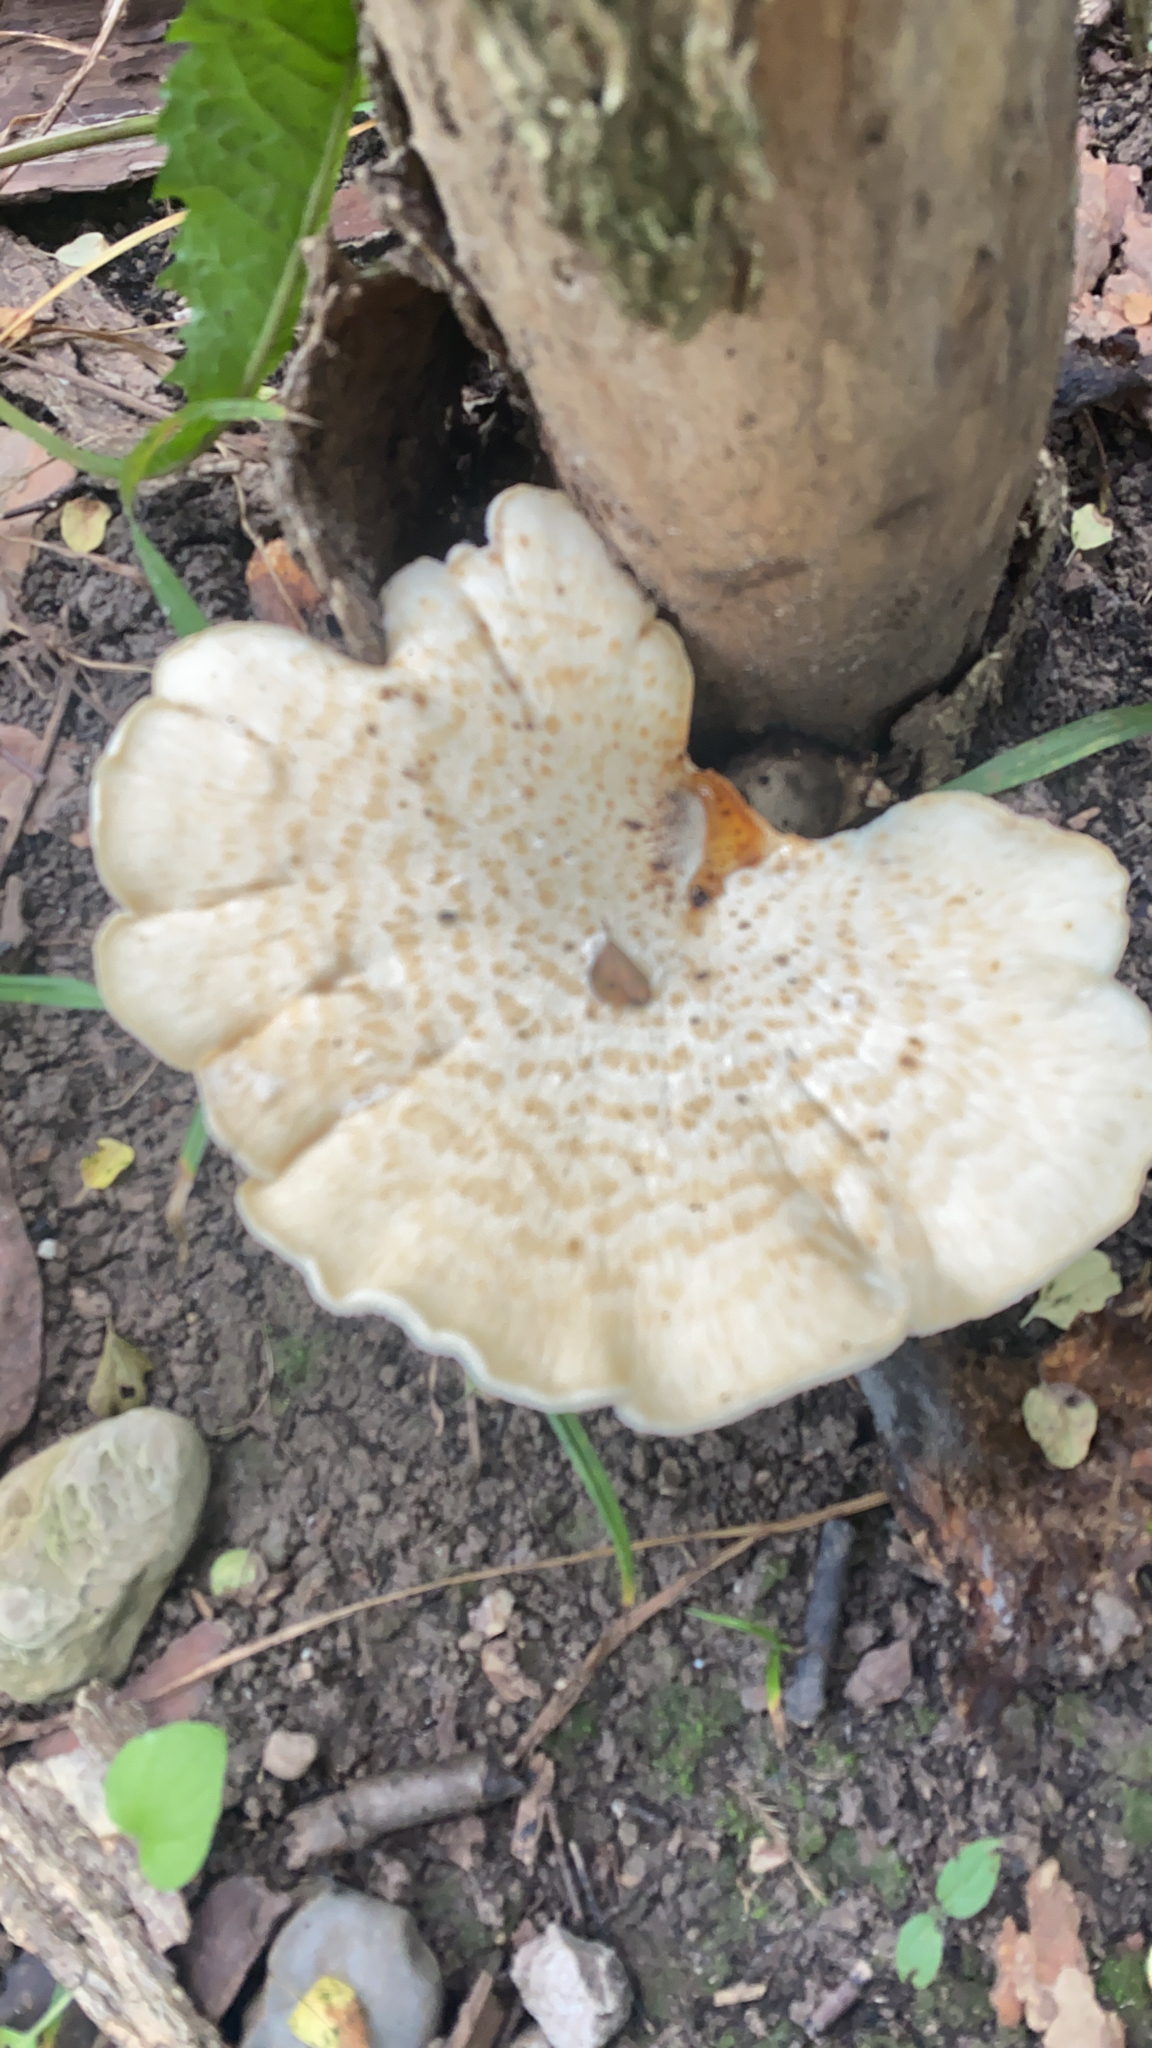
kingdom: Fungi
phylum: Basidiomycota
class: Agaricomycetes
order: Polyporales
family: Polyporaceae
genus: Cerioporus
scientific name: Cerioporus squamosus
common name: Dryad's saddle
